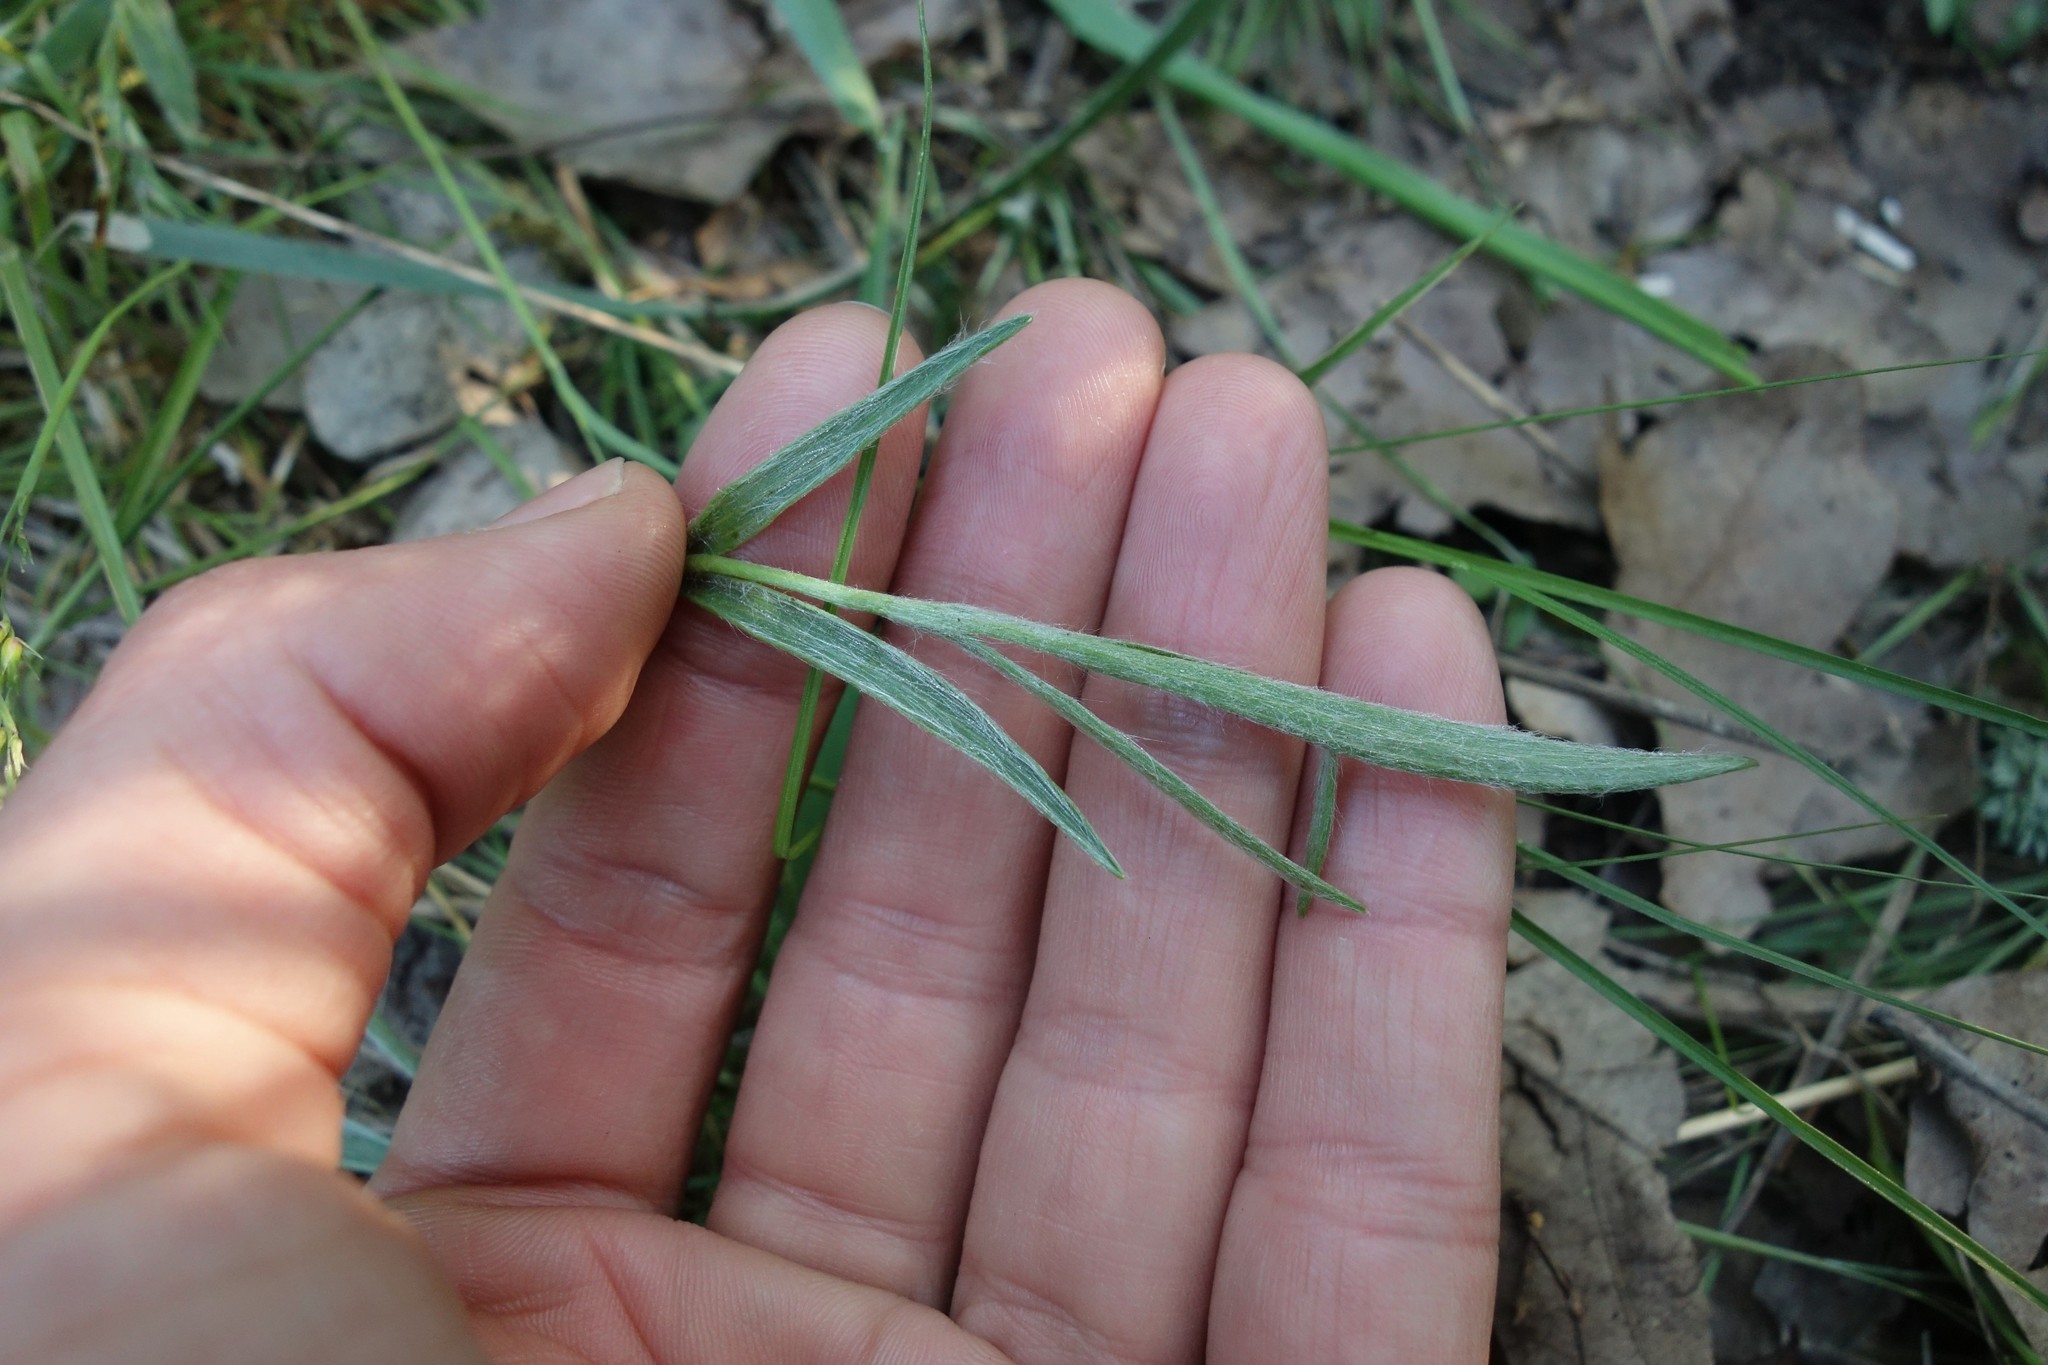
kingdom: Plantae
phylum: Tracheophyta
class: Magnoliopsida
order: Ranunculales
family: Ranunculaceae
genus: Ranunculus
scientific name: Ranunculus illyricus
